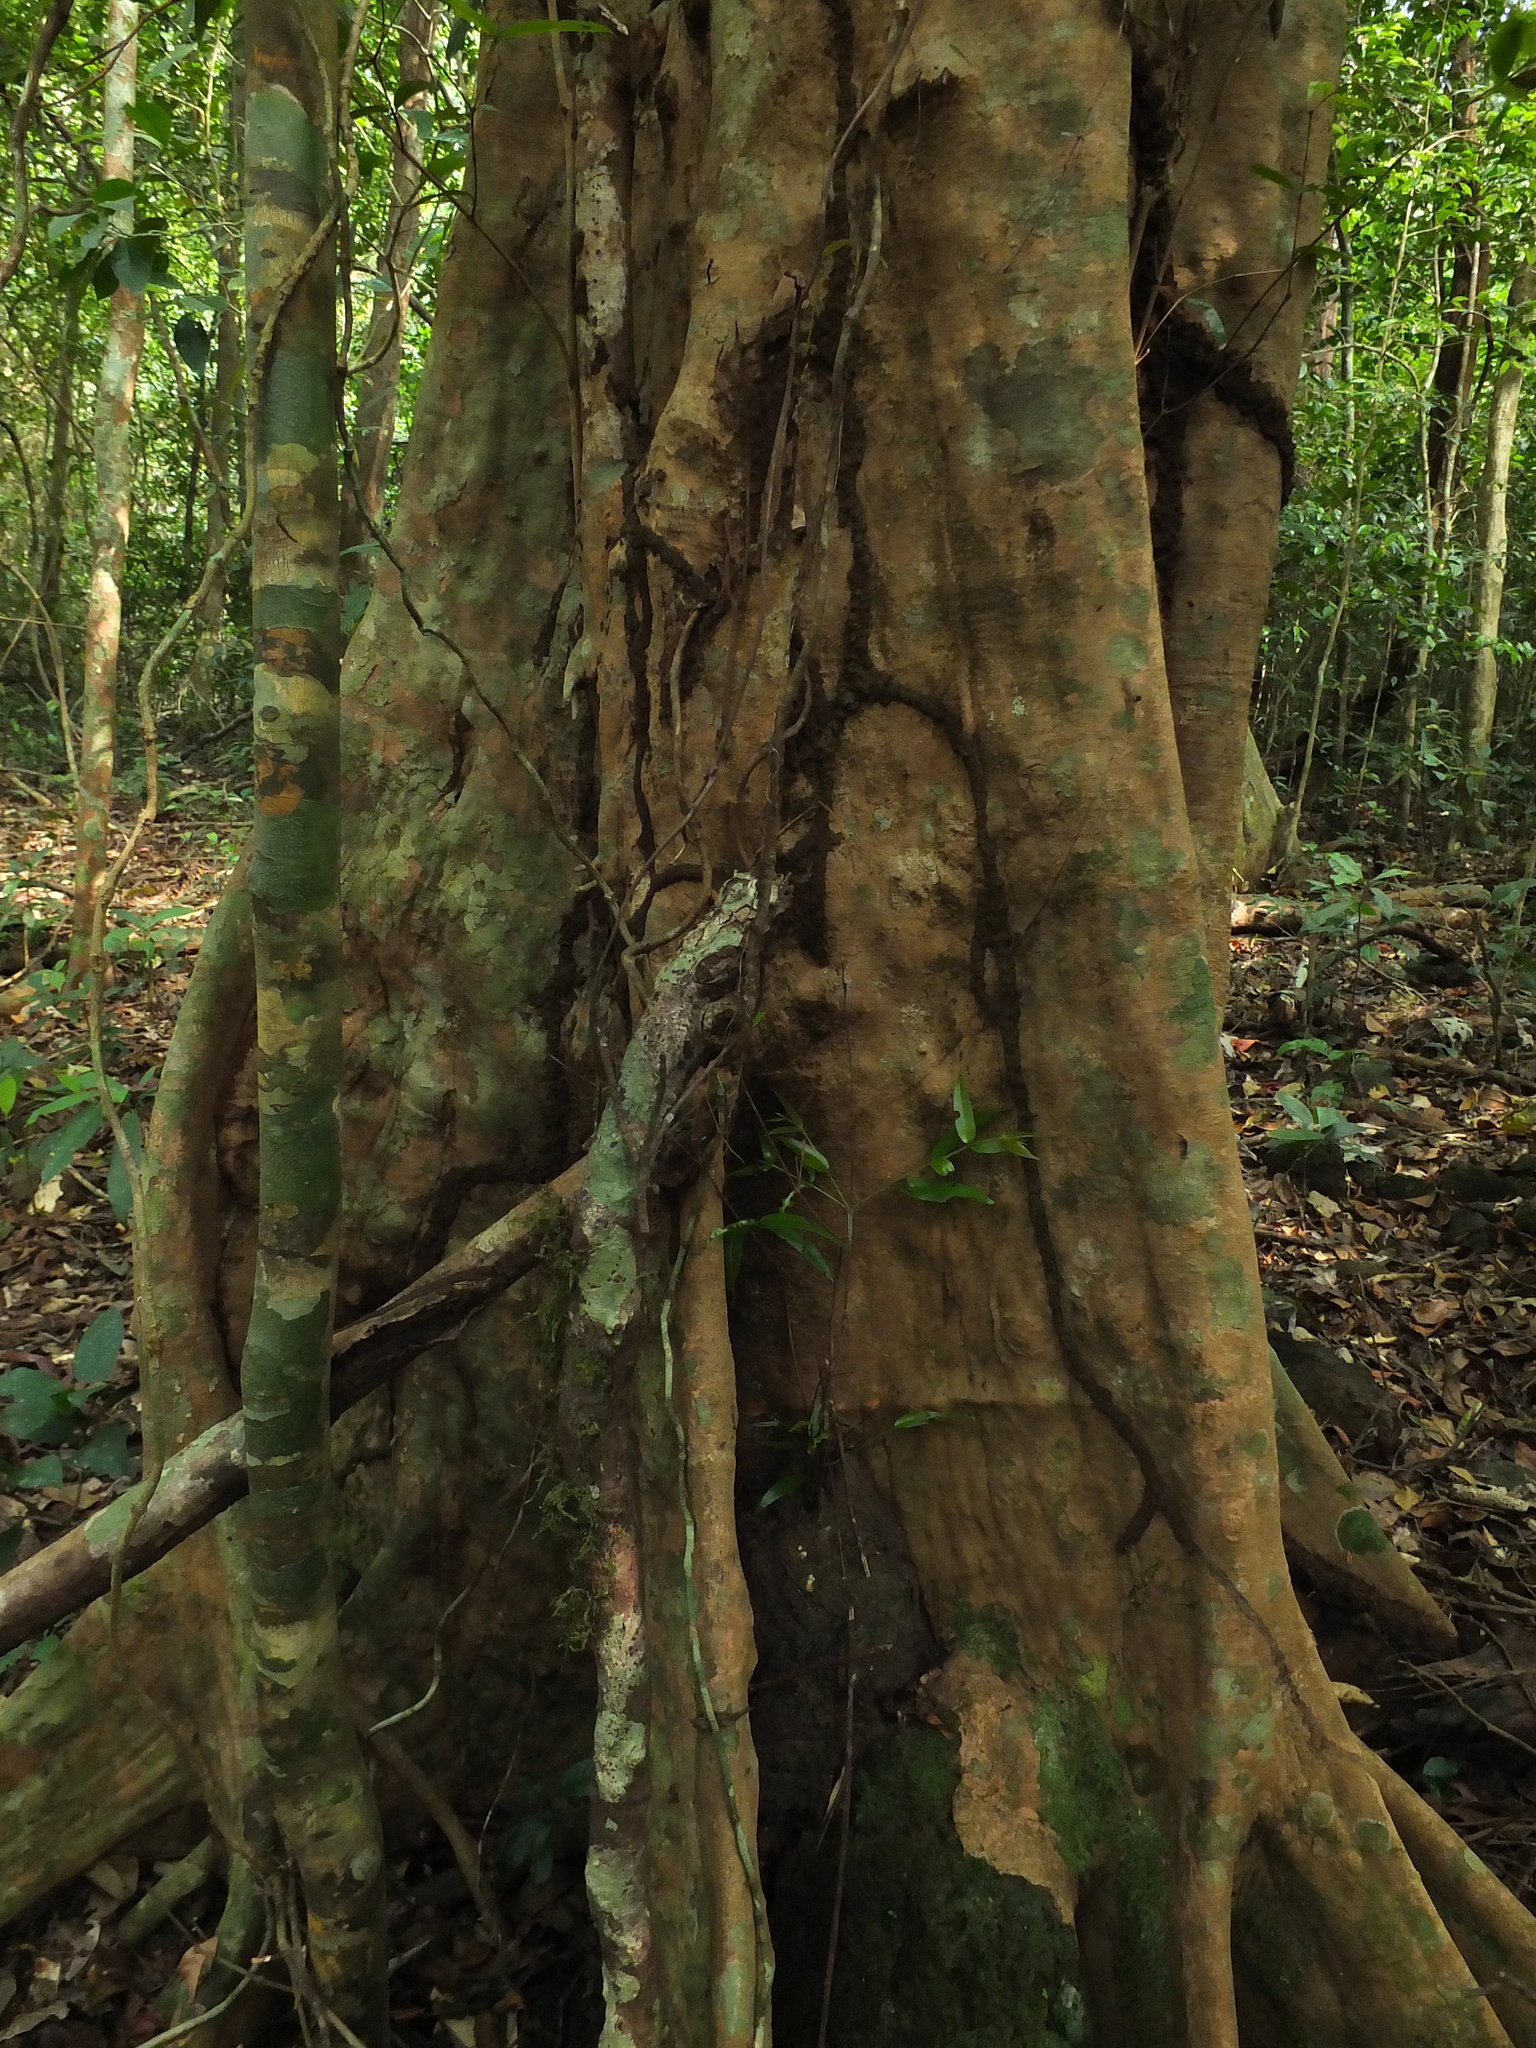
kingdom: Plantae
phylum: Tracheophyta
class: Magnoliopsida
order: Myrtales
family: Myrtaceae
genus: Syzygium
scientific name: Syzygium rubicundum
